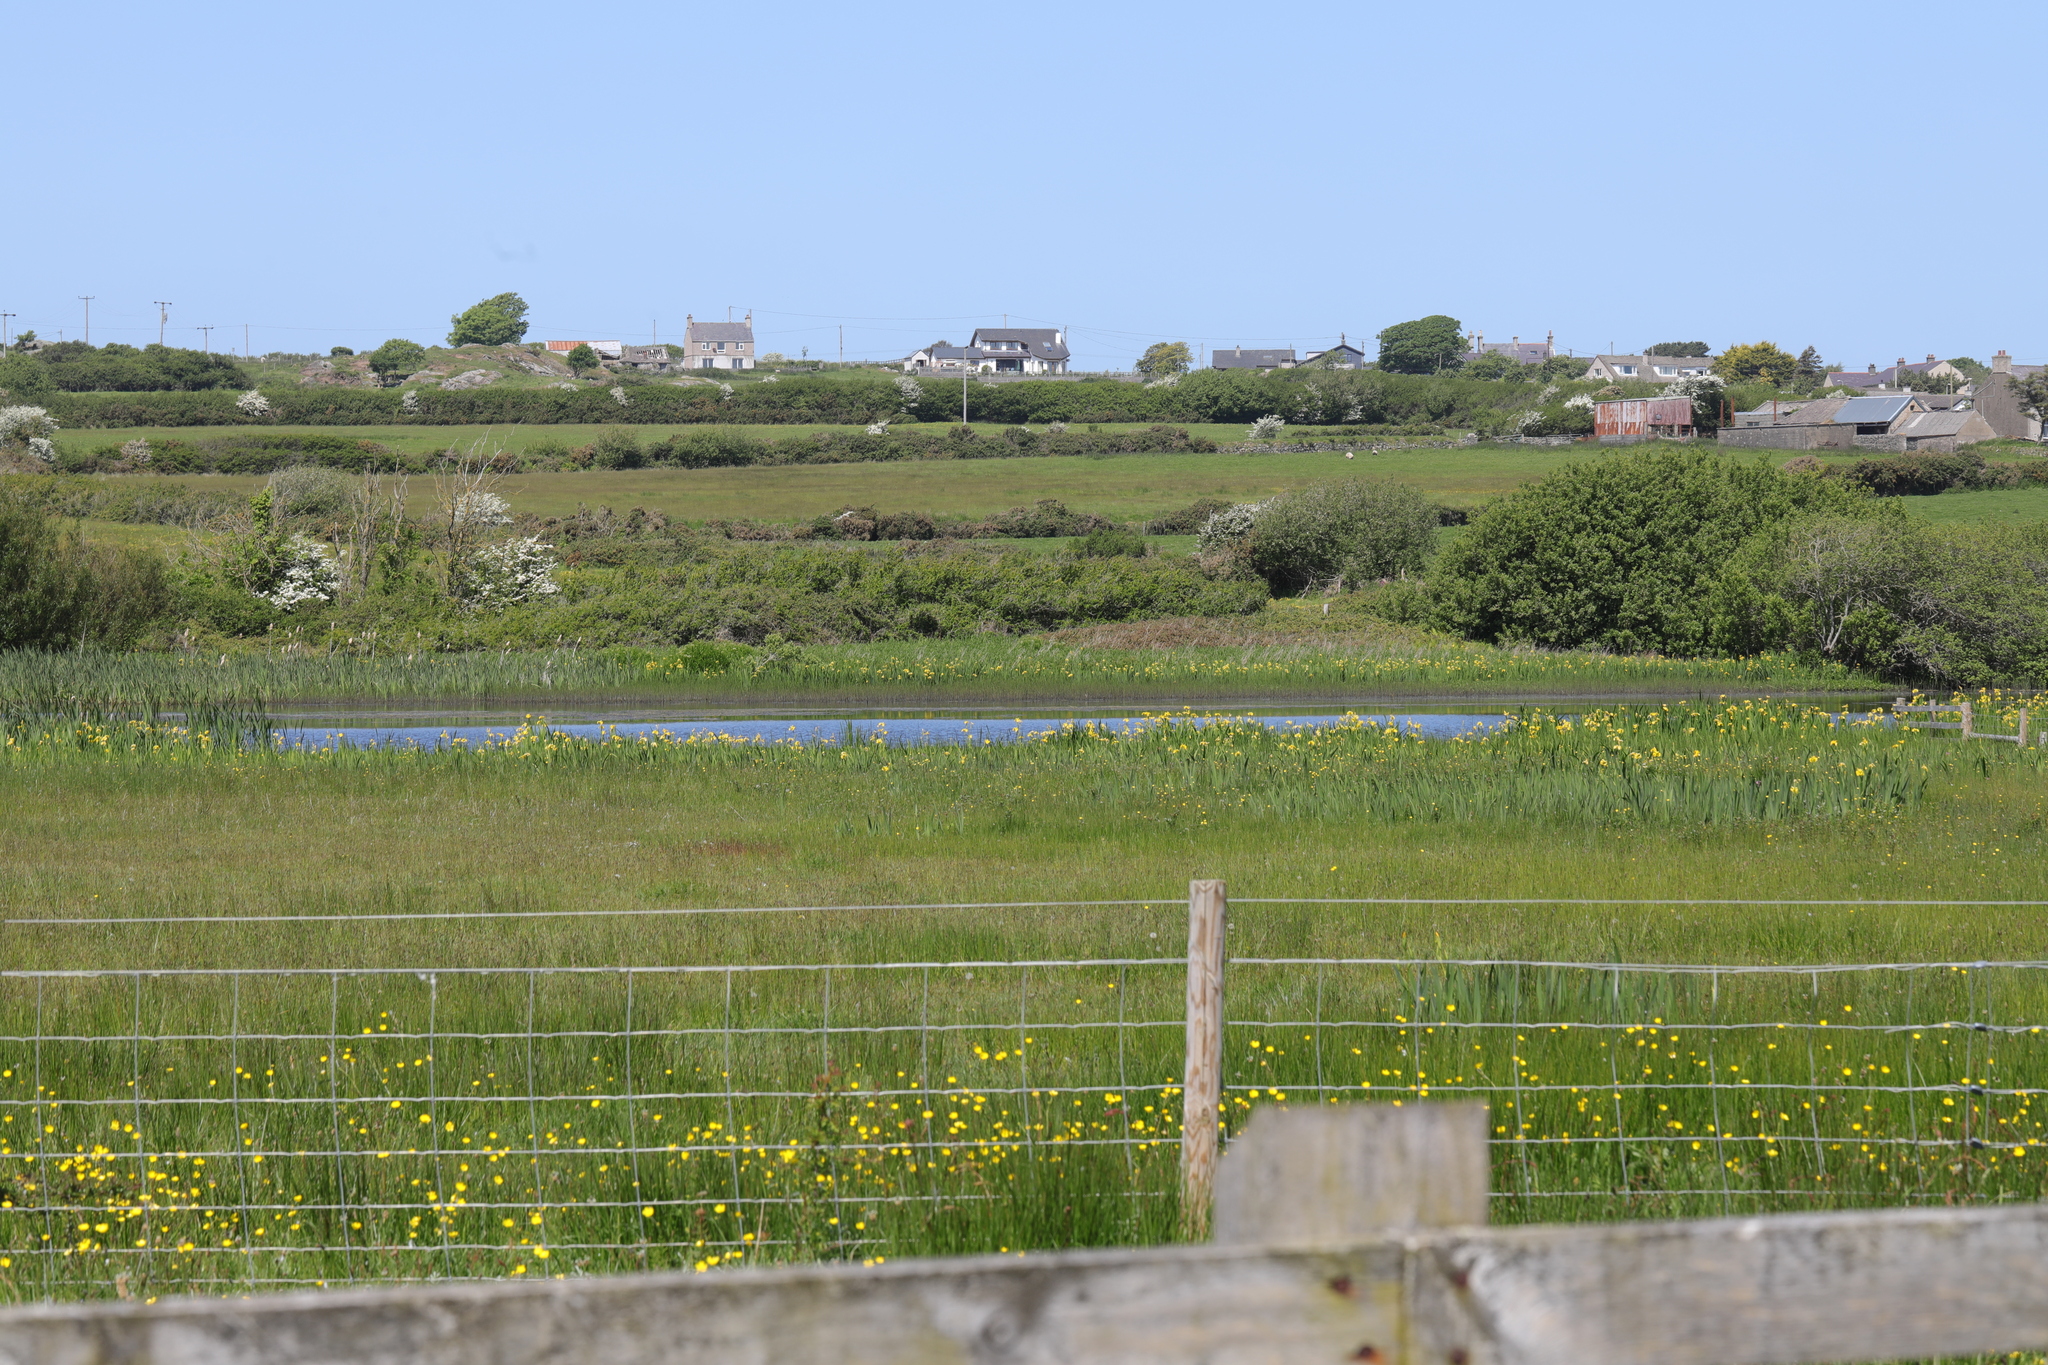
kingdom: Plantae
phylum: Tracheophyta
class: Liliopsida
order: Asparagales
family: Iridaceae
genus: Iris
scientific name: Iris pseudacorus
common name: Yellow flag
